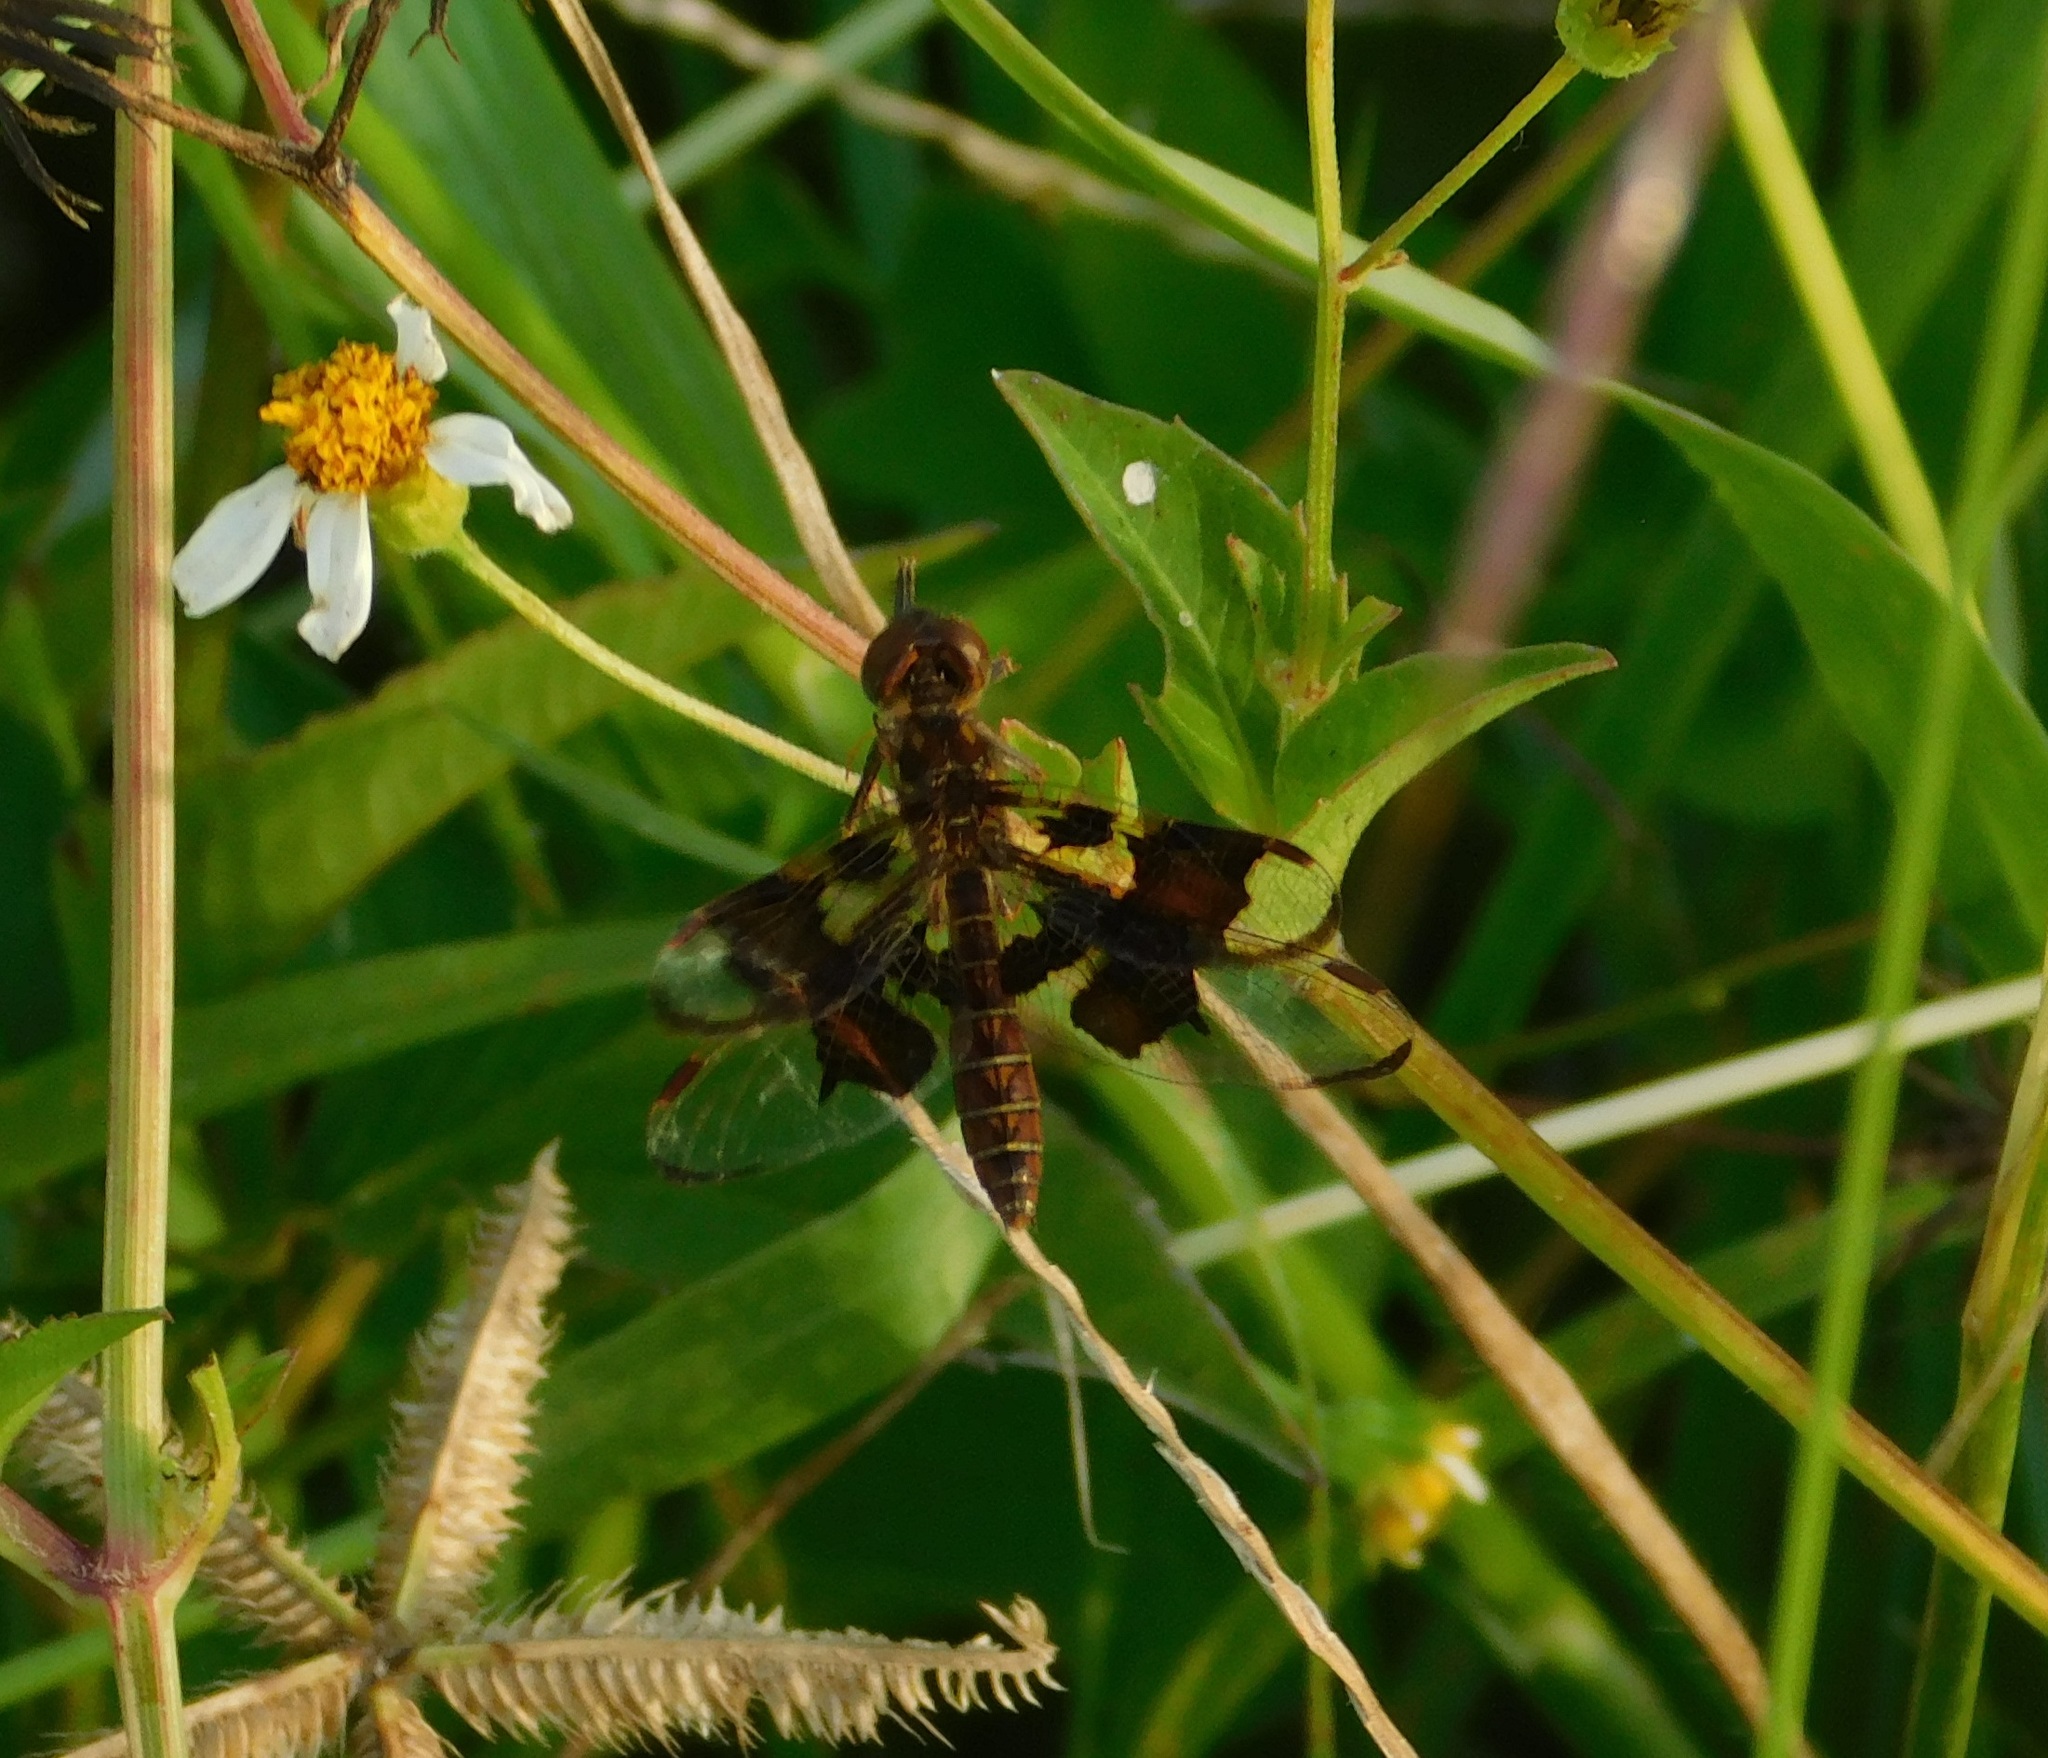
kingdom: Animalia
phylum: Arthropoda
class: Insecta
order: Odonata
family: Libellulidae
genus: Perithemis
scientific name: Perithemis tenera
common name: Eastern amberwing
